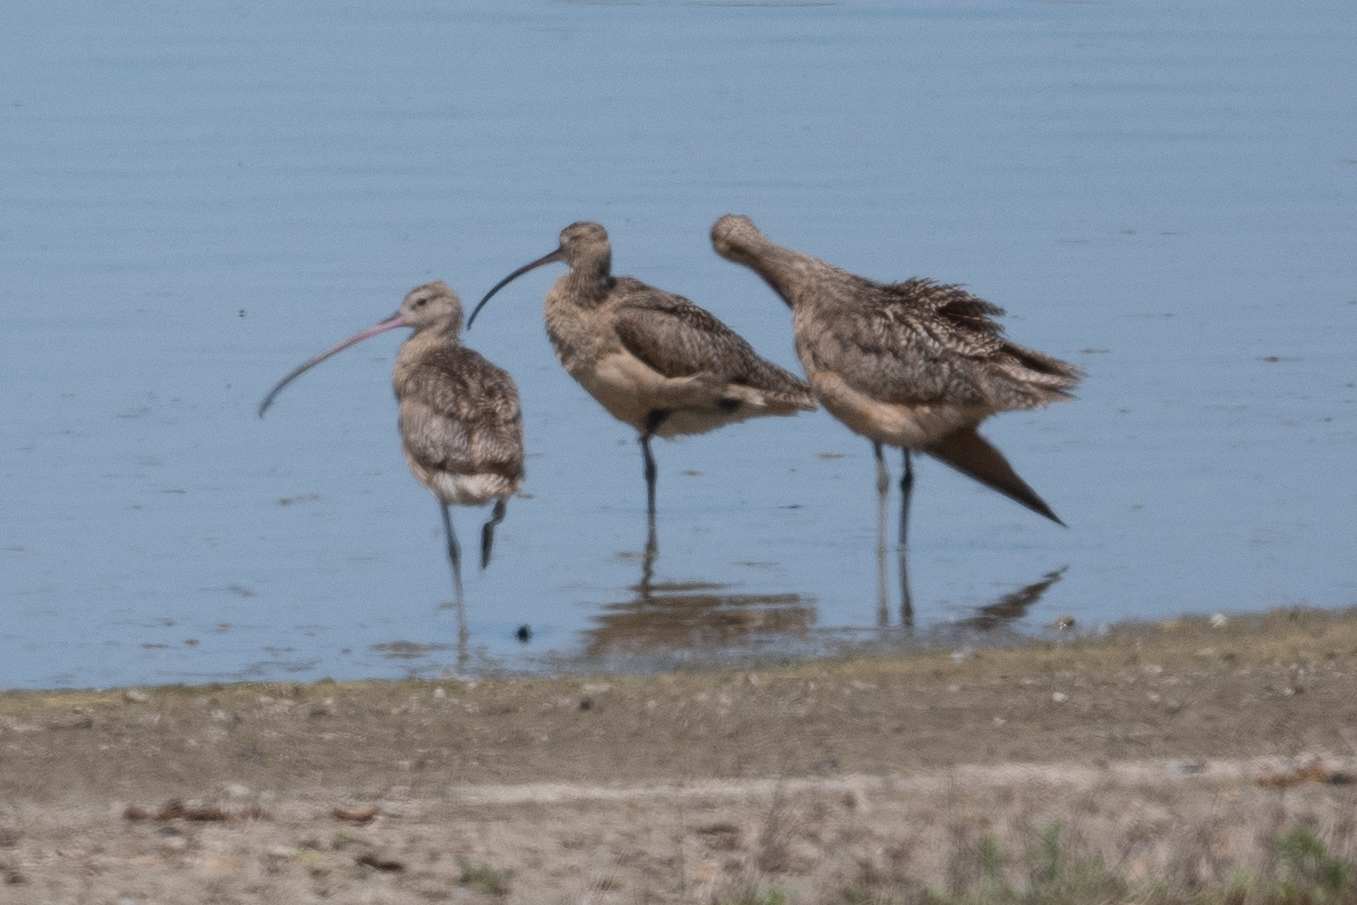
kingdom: Animalia
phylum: Chordata
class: Aves
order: Charadriiformes
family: Scolopacidae
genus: Numenius
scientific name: Numenius americanus
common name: Long-billed curlew
